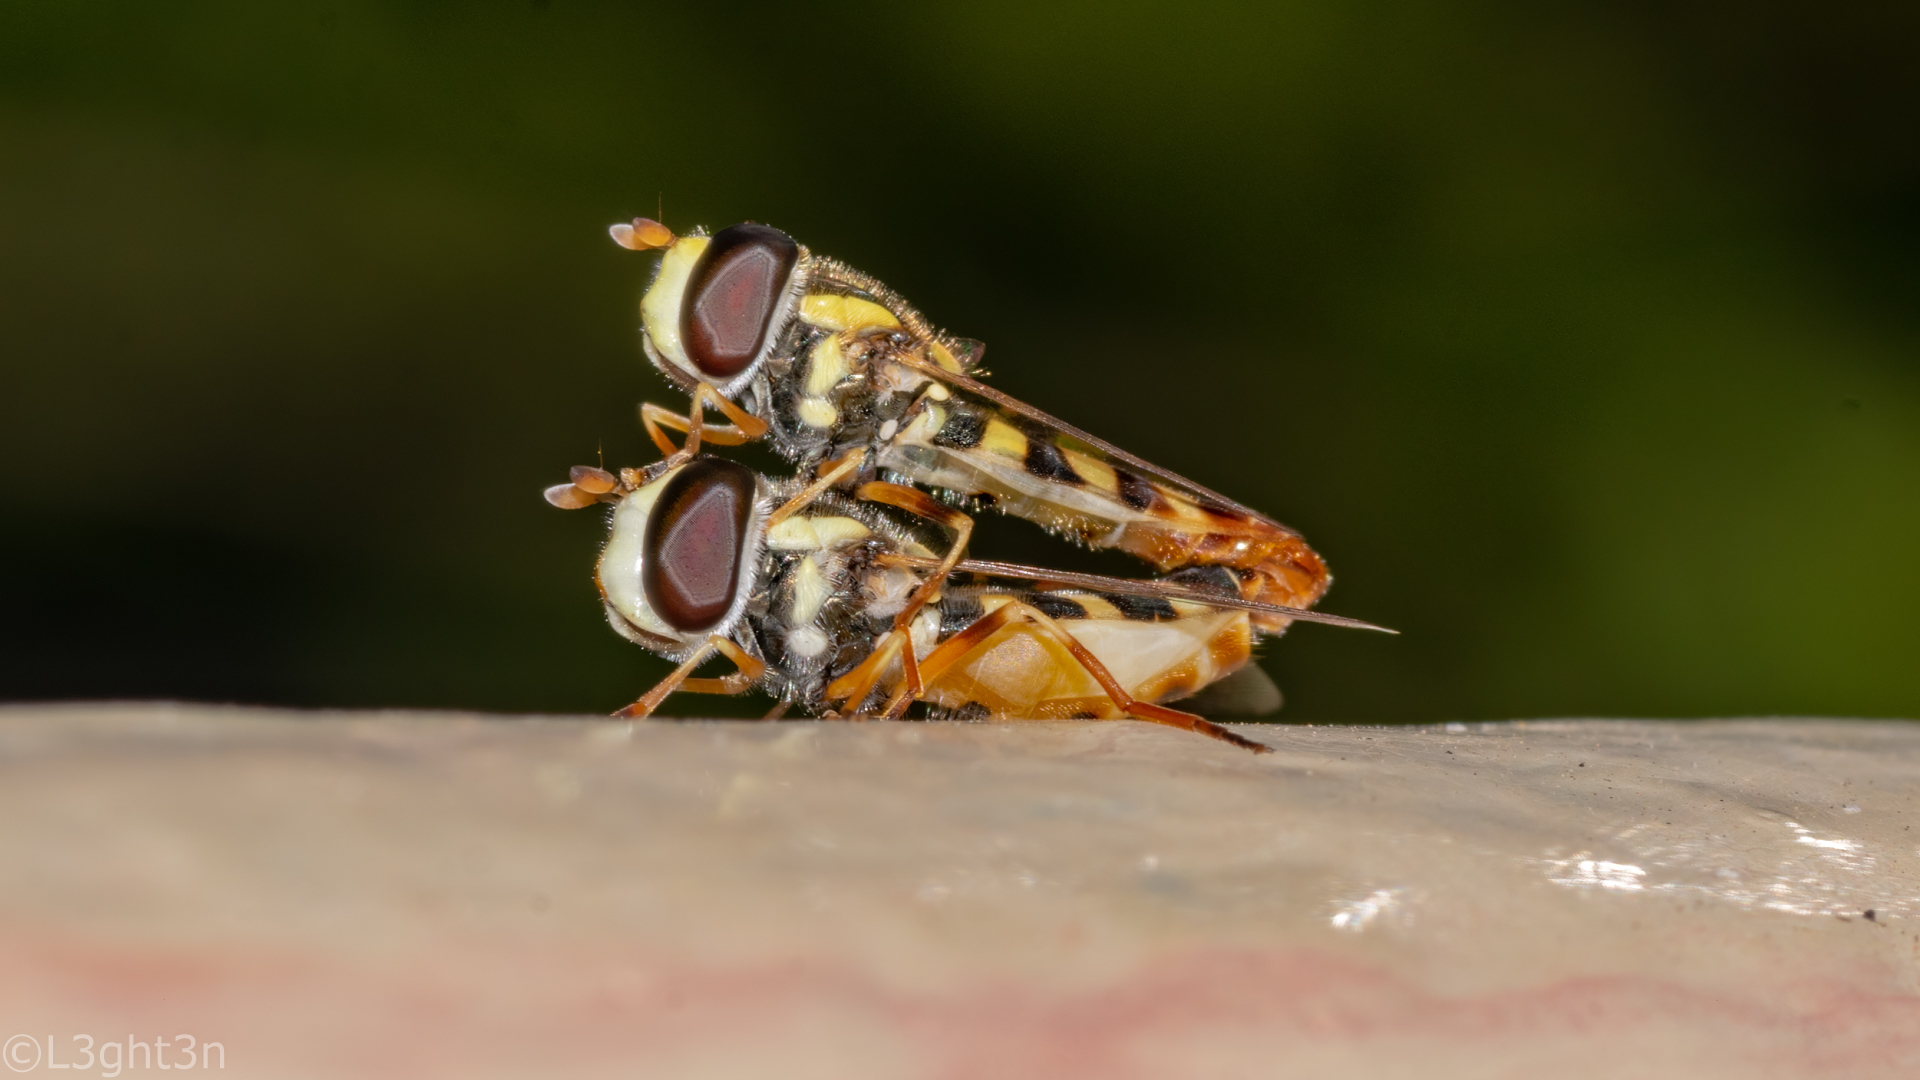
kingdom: Animalia
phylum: Arthropoda
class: Insecta
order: Diptera
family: Syrphidae
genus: Ischiodon
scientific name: Ischiodon aegyptius
